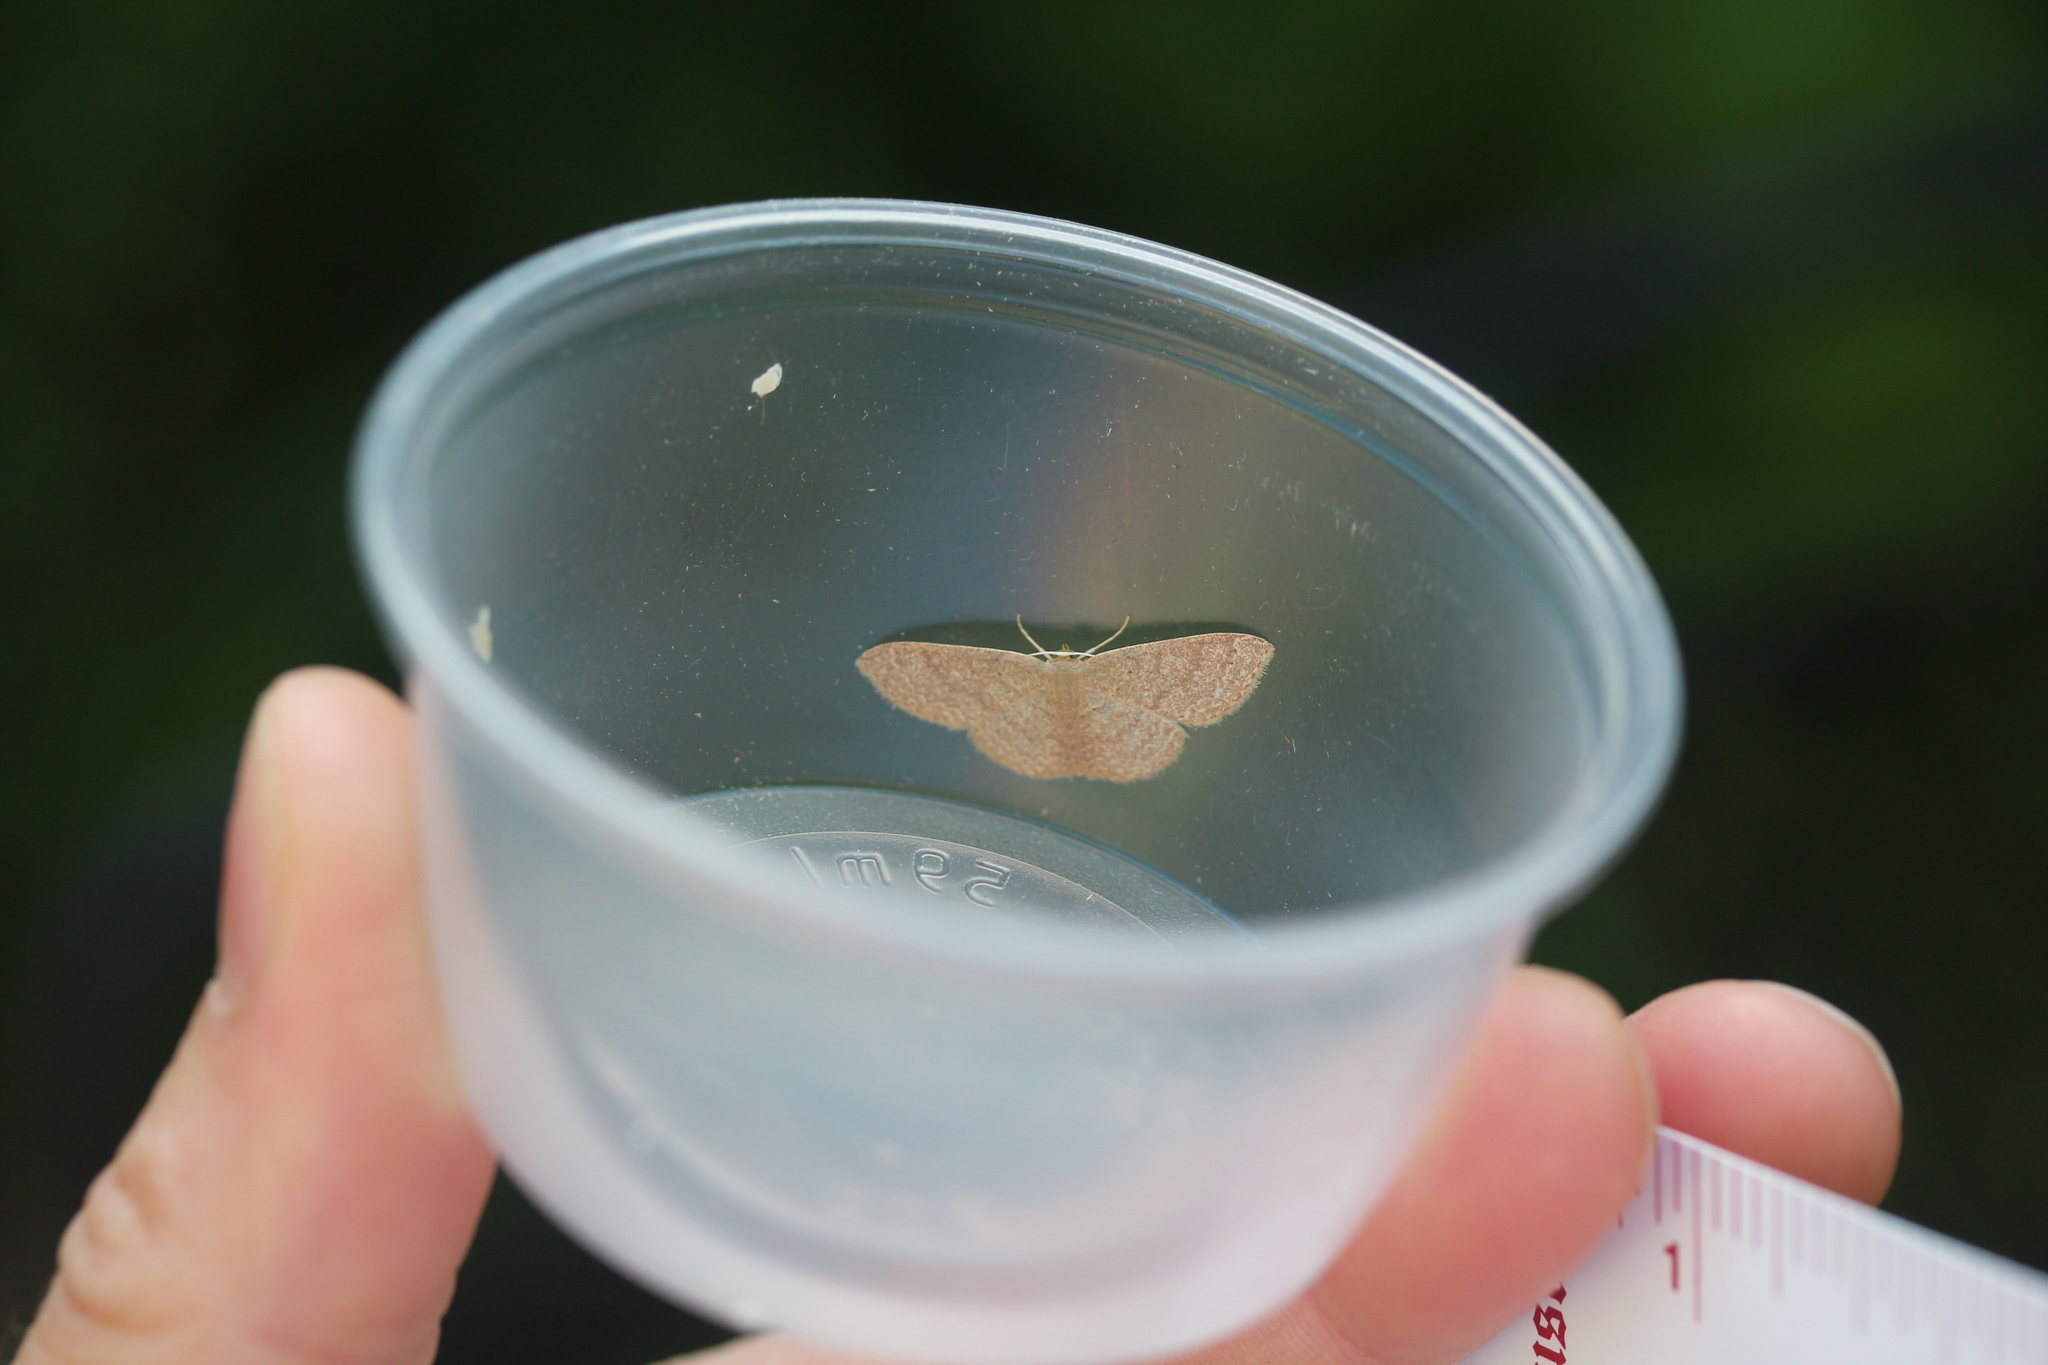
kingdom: Animalia
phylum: Arthropoda
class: Insecta
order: Lepidoptera
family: Geometridae
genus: Pleuroprucha
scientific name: Pleuroprucha insulsaria
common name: Common tan wave
